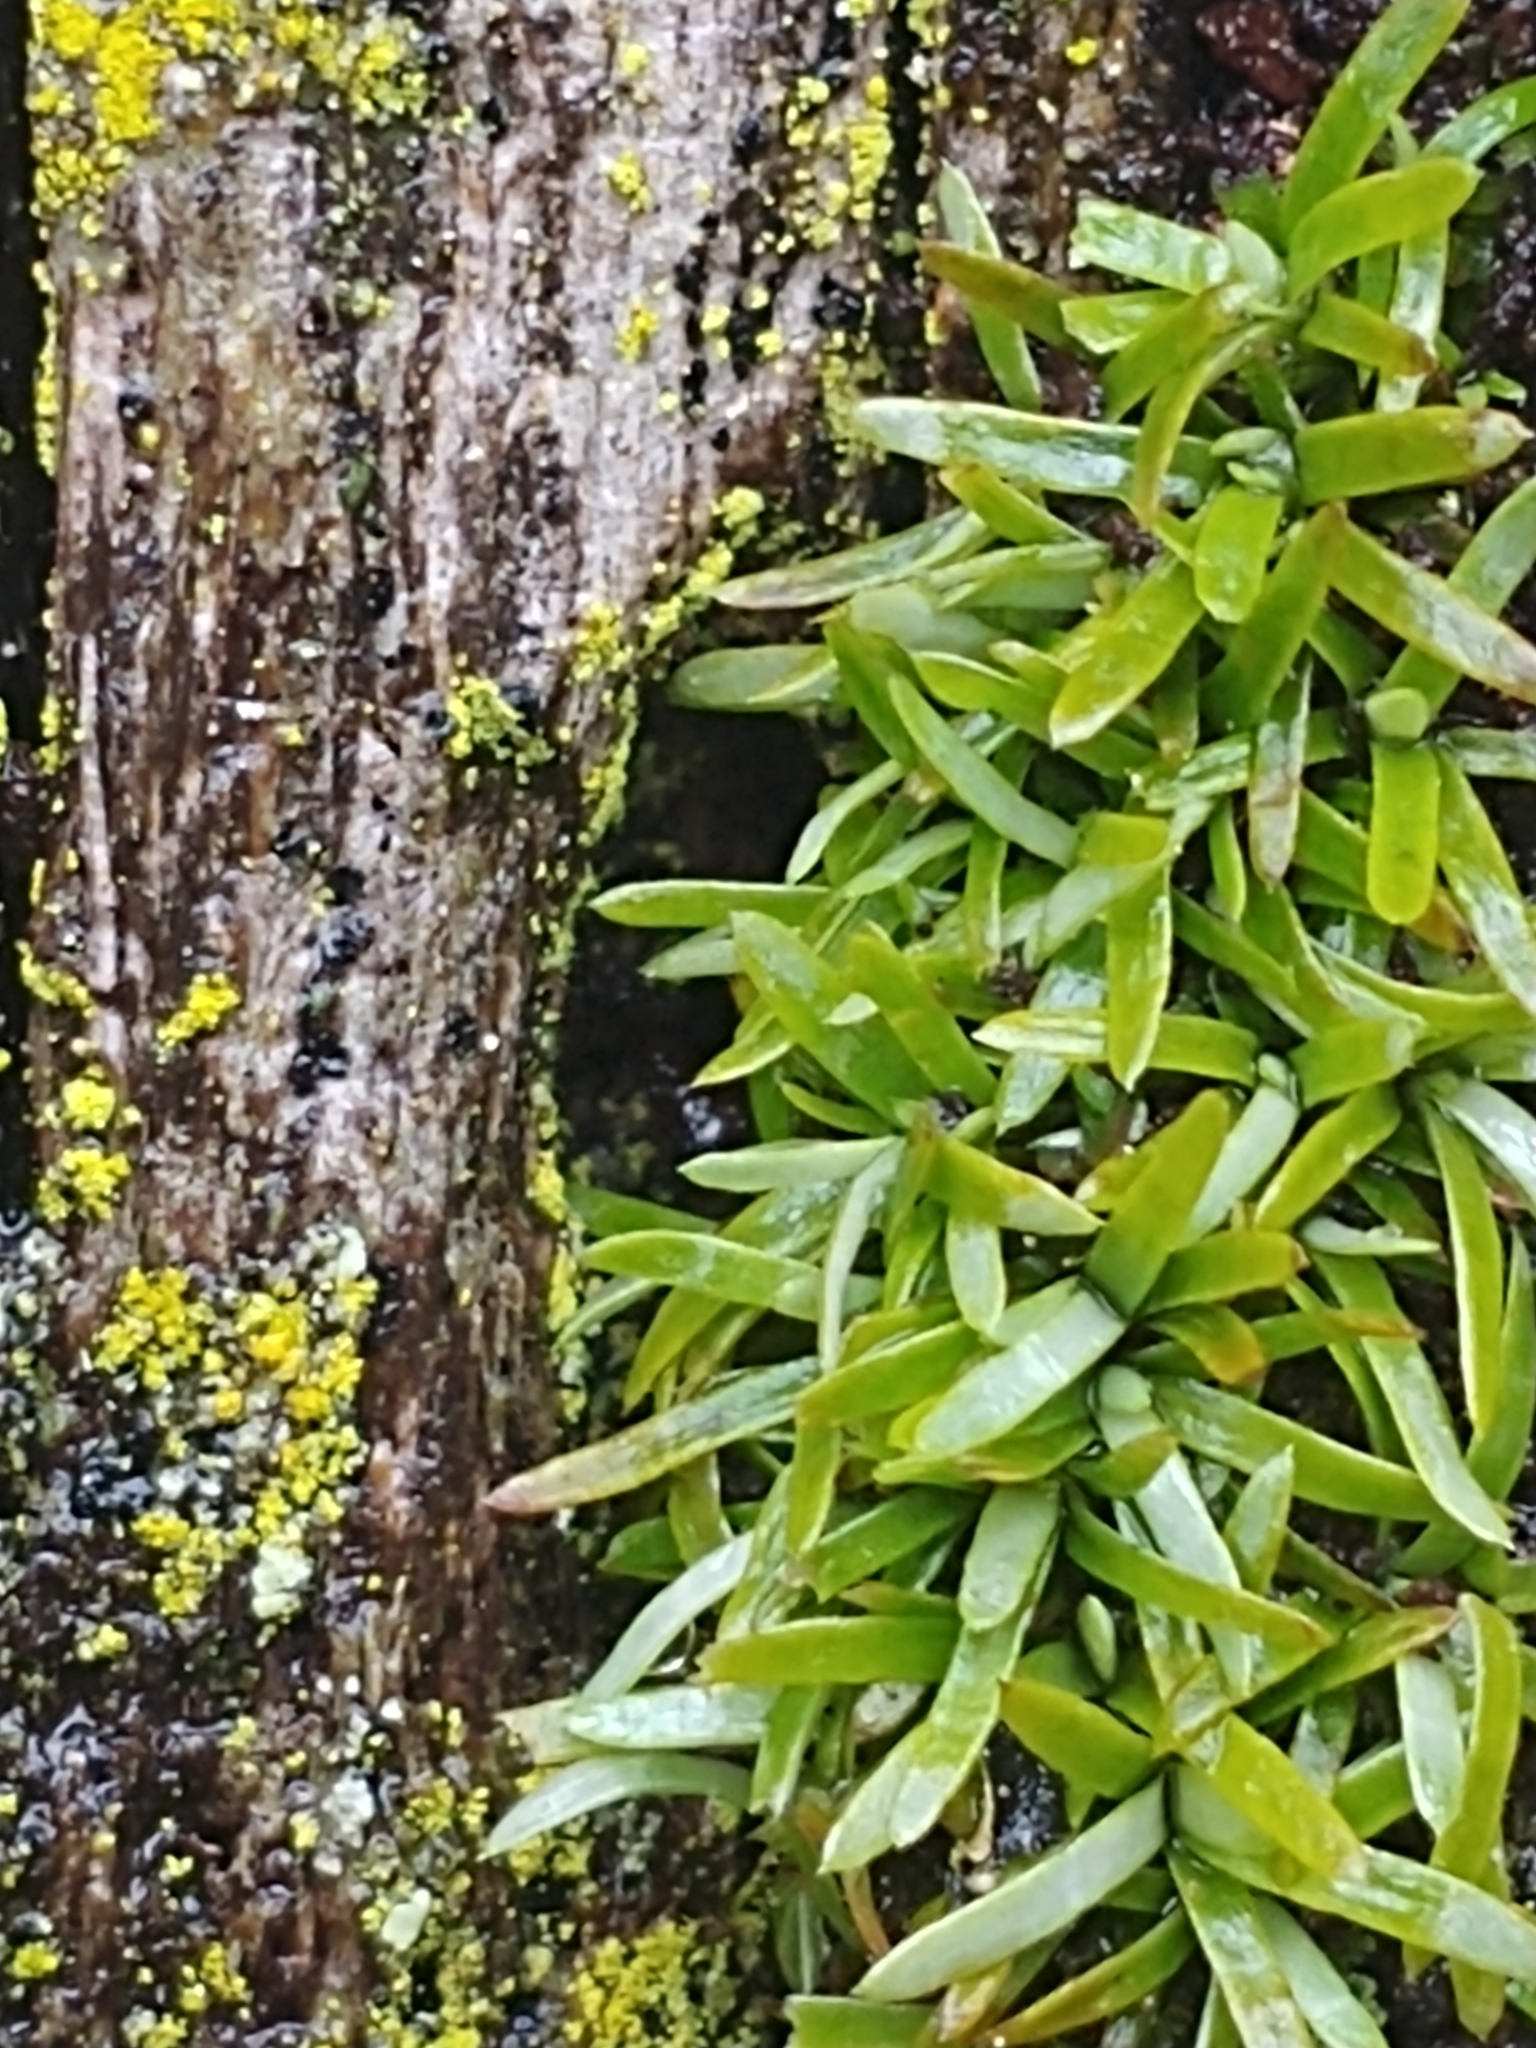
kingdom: Plantae
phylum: Bryophyta
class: Bryopsida
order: Dicranales
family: Octoblepharaceae
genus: Octoblepharum
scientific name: Octoblepharum albidum
